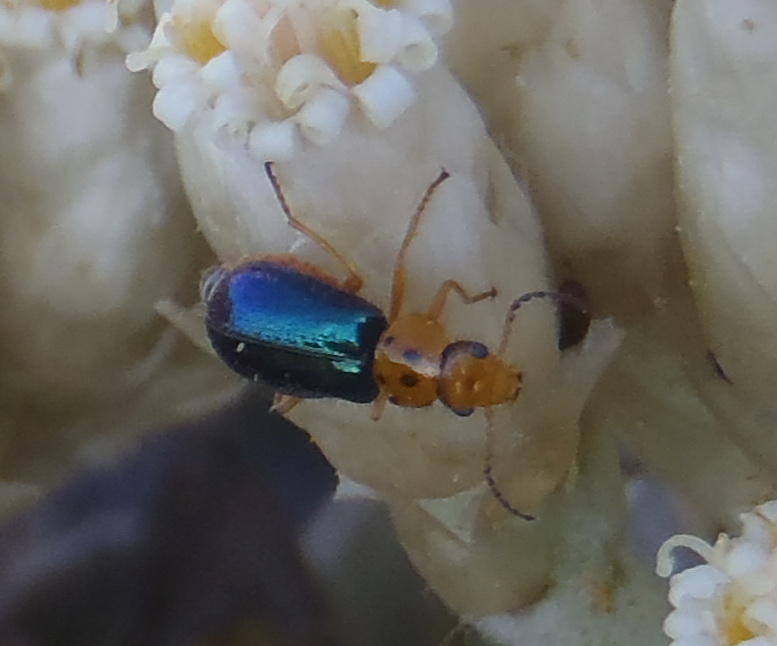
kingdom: Animalia
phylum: Arthropoda
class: Insecta
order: Coleoptera
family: Melyridae
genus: Ascolhedybius
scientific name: Ascolhedybius
